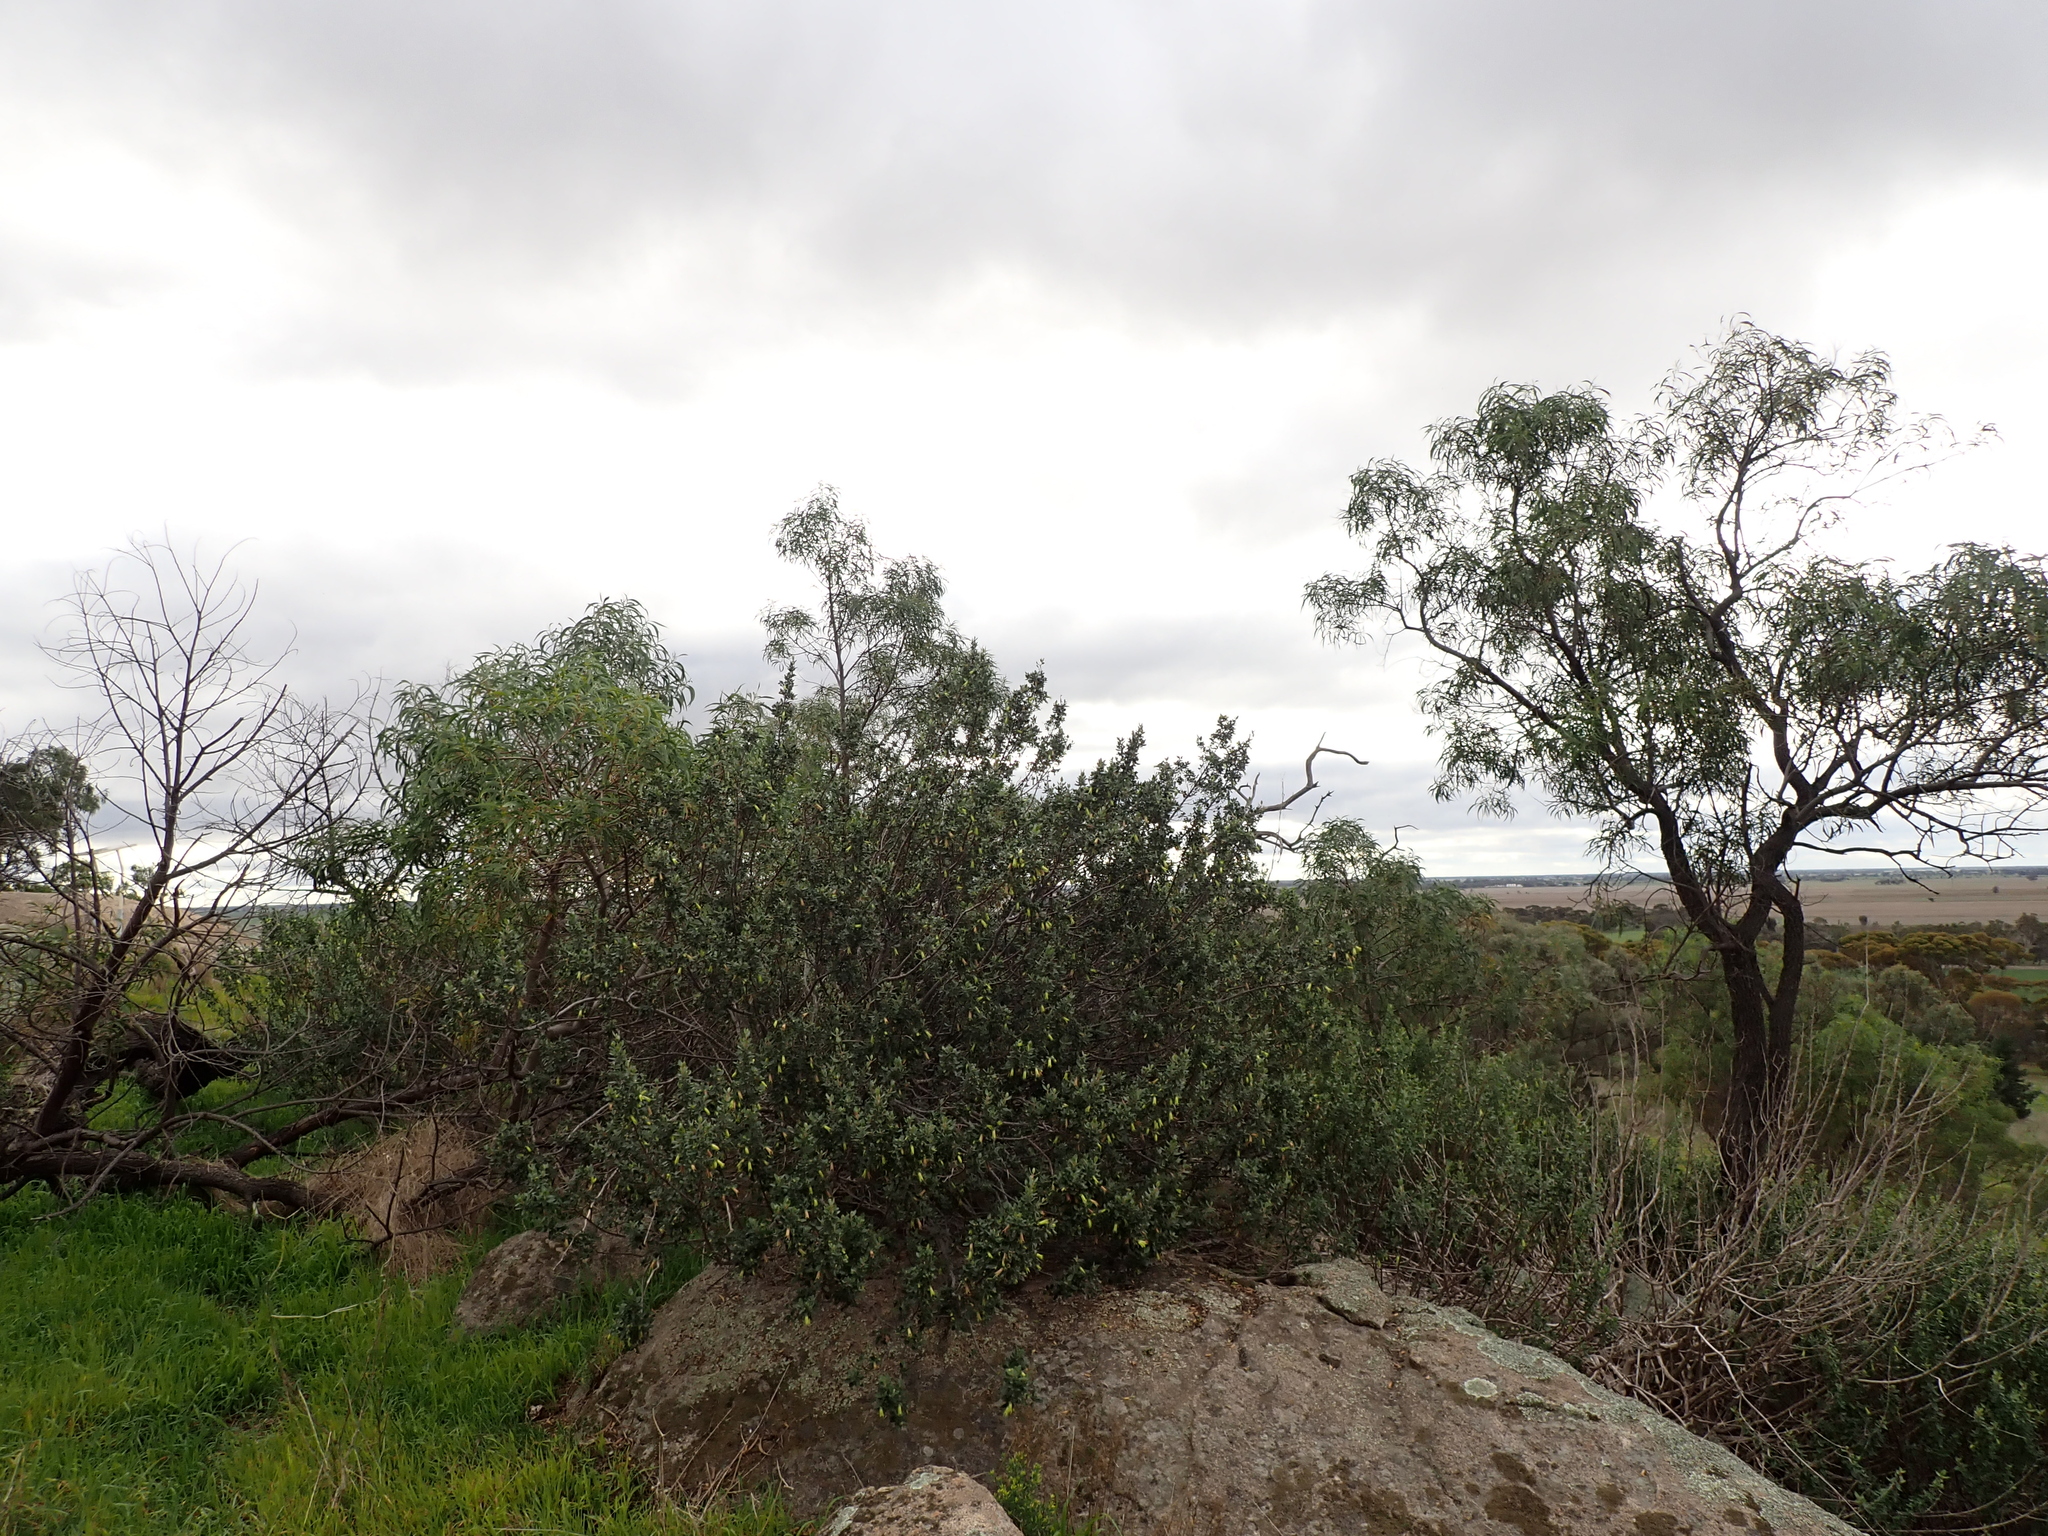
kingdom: Plantae
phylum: Tracheophyta
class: Magnoliopsida
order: Sapindales
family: Rutaceae
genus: Correa
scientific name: Correa glabra
